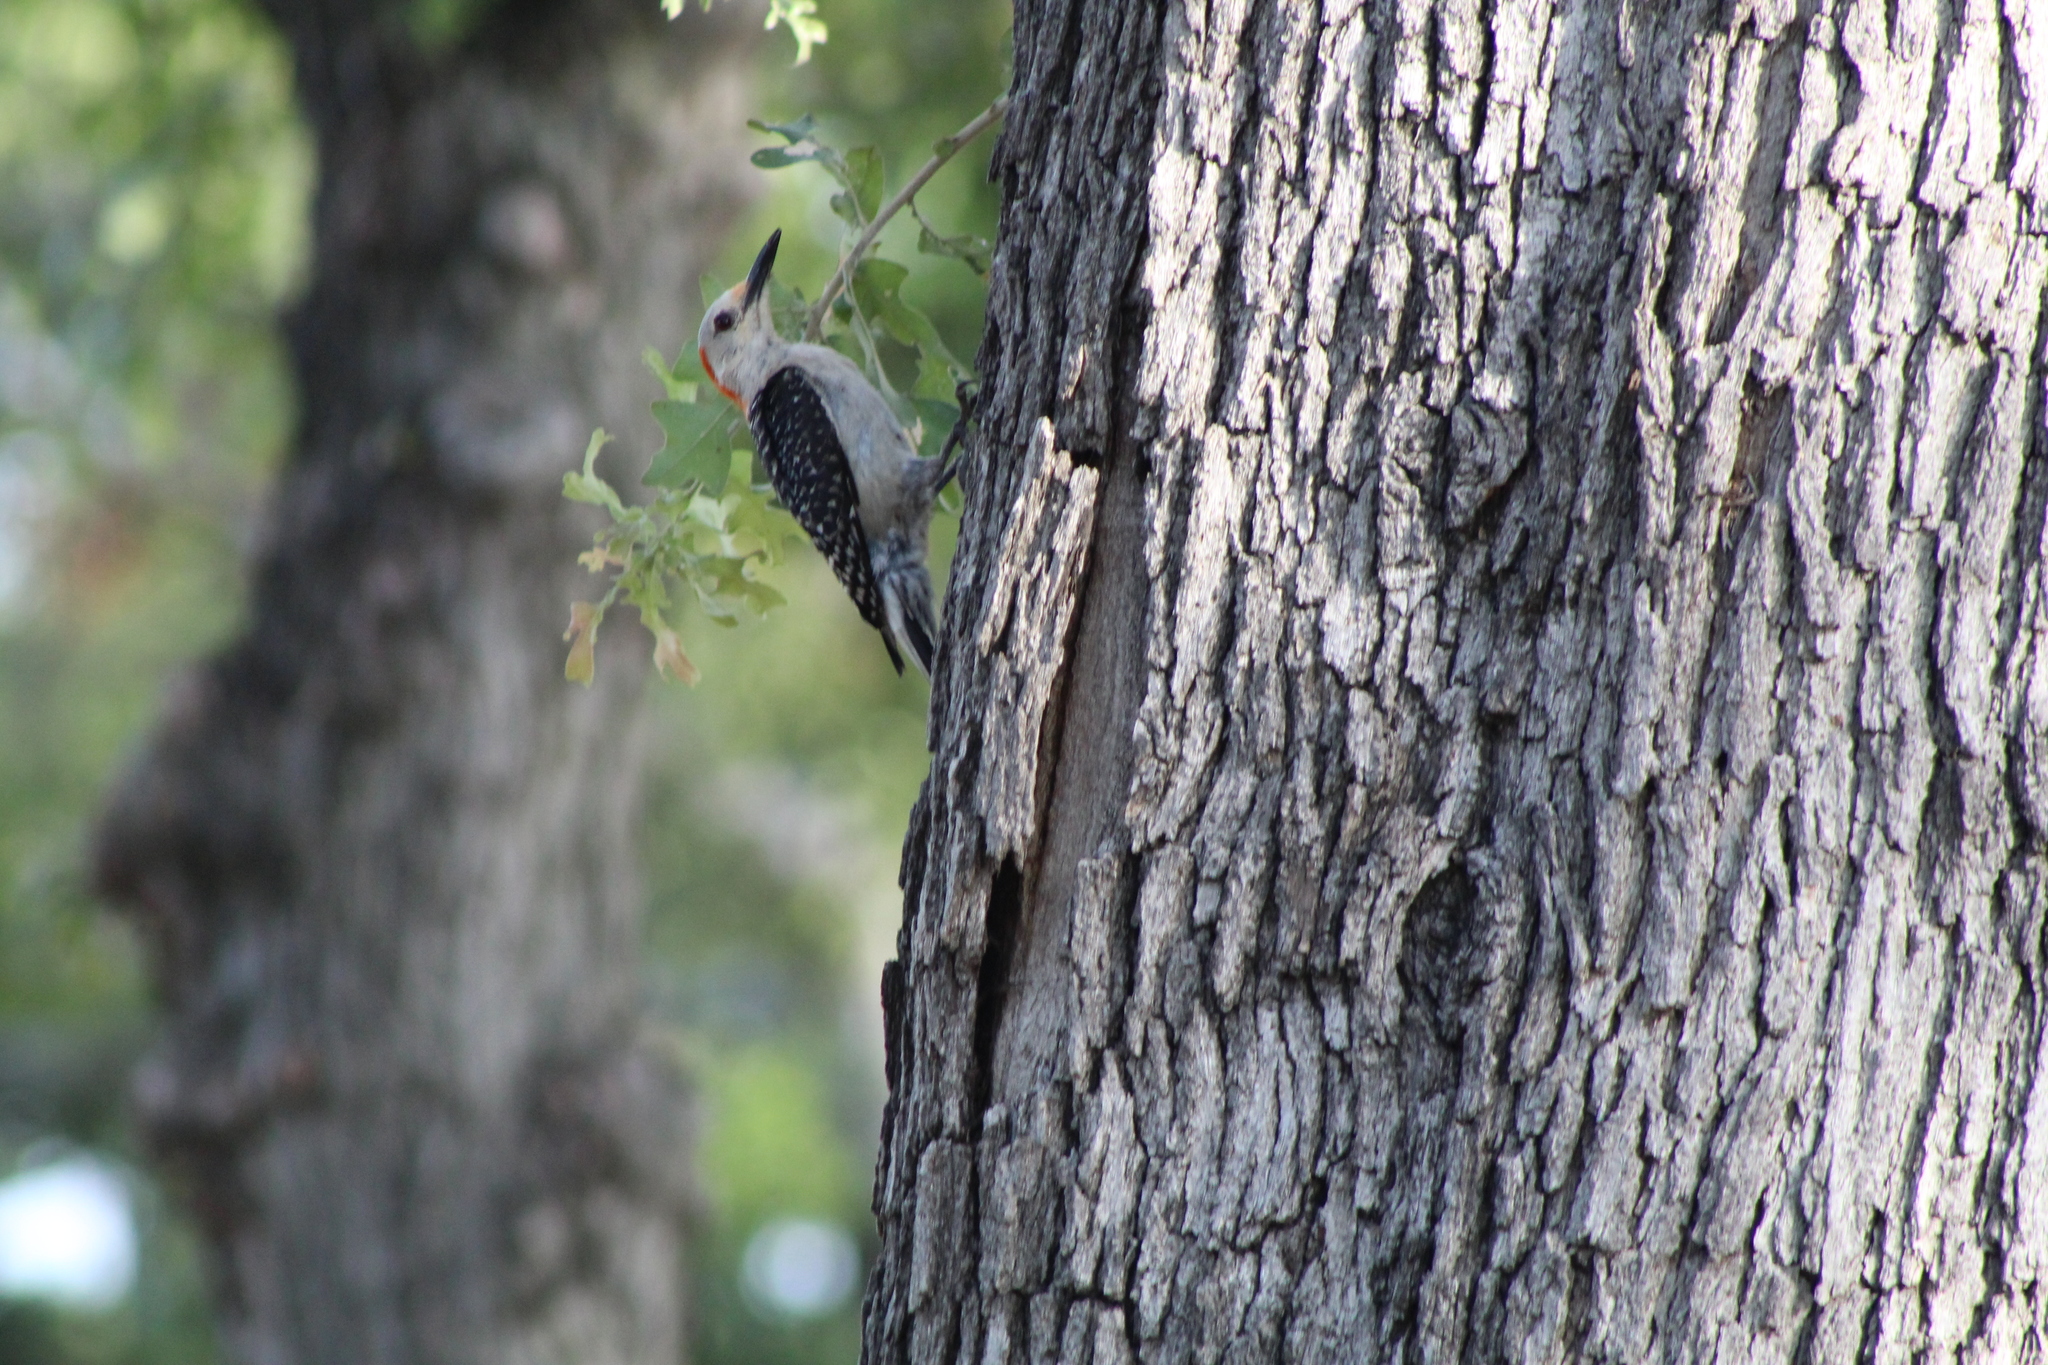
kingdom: Animalia
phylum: Chordata
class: Aves
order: Piciformes
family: Picidae
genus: Melanerpes
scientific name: Melanerpes carolinus
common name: Red-bellied woodpecker
